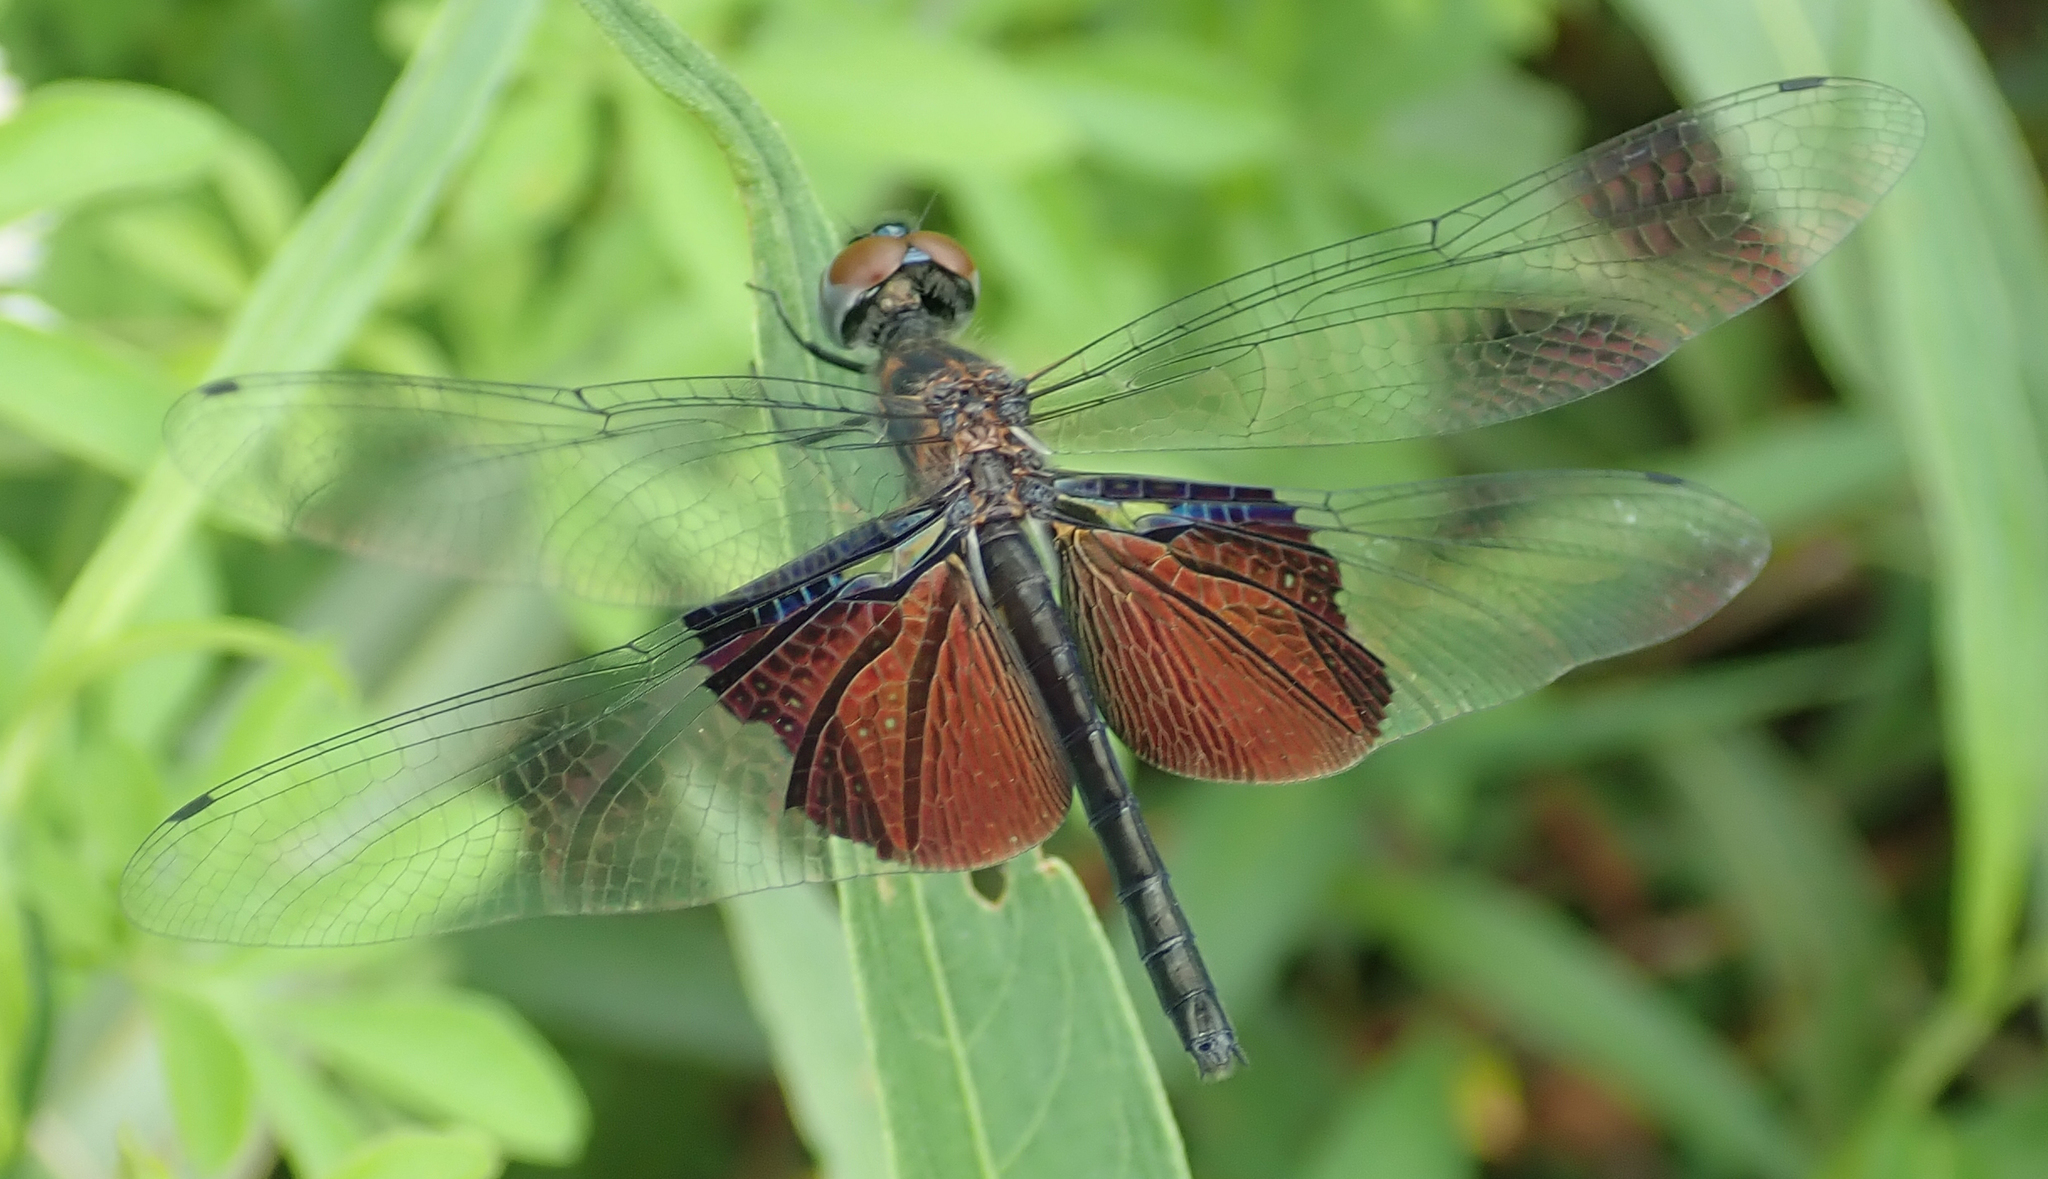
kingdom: Animalia
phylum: Arthropoda
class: Insecta
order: Odonata
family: Libellulidae
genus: Rhyothemis
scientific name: Rhyothemis semihyalina
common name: Phantom flutterer
